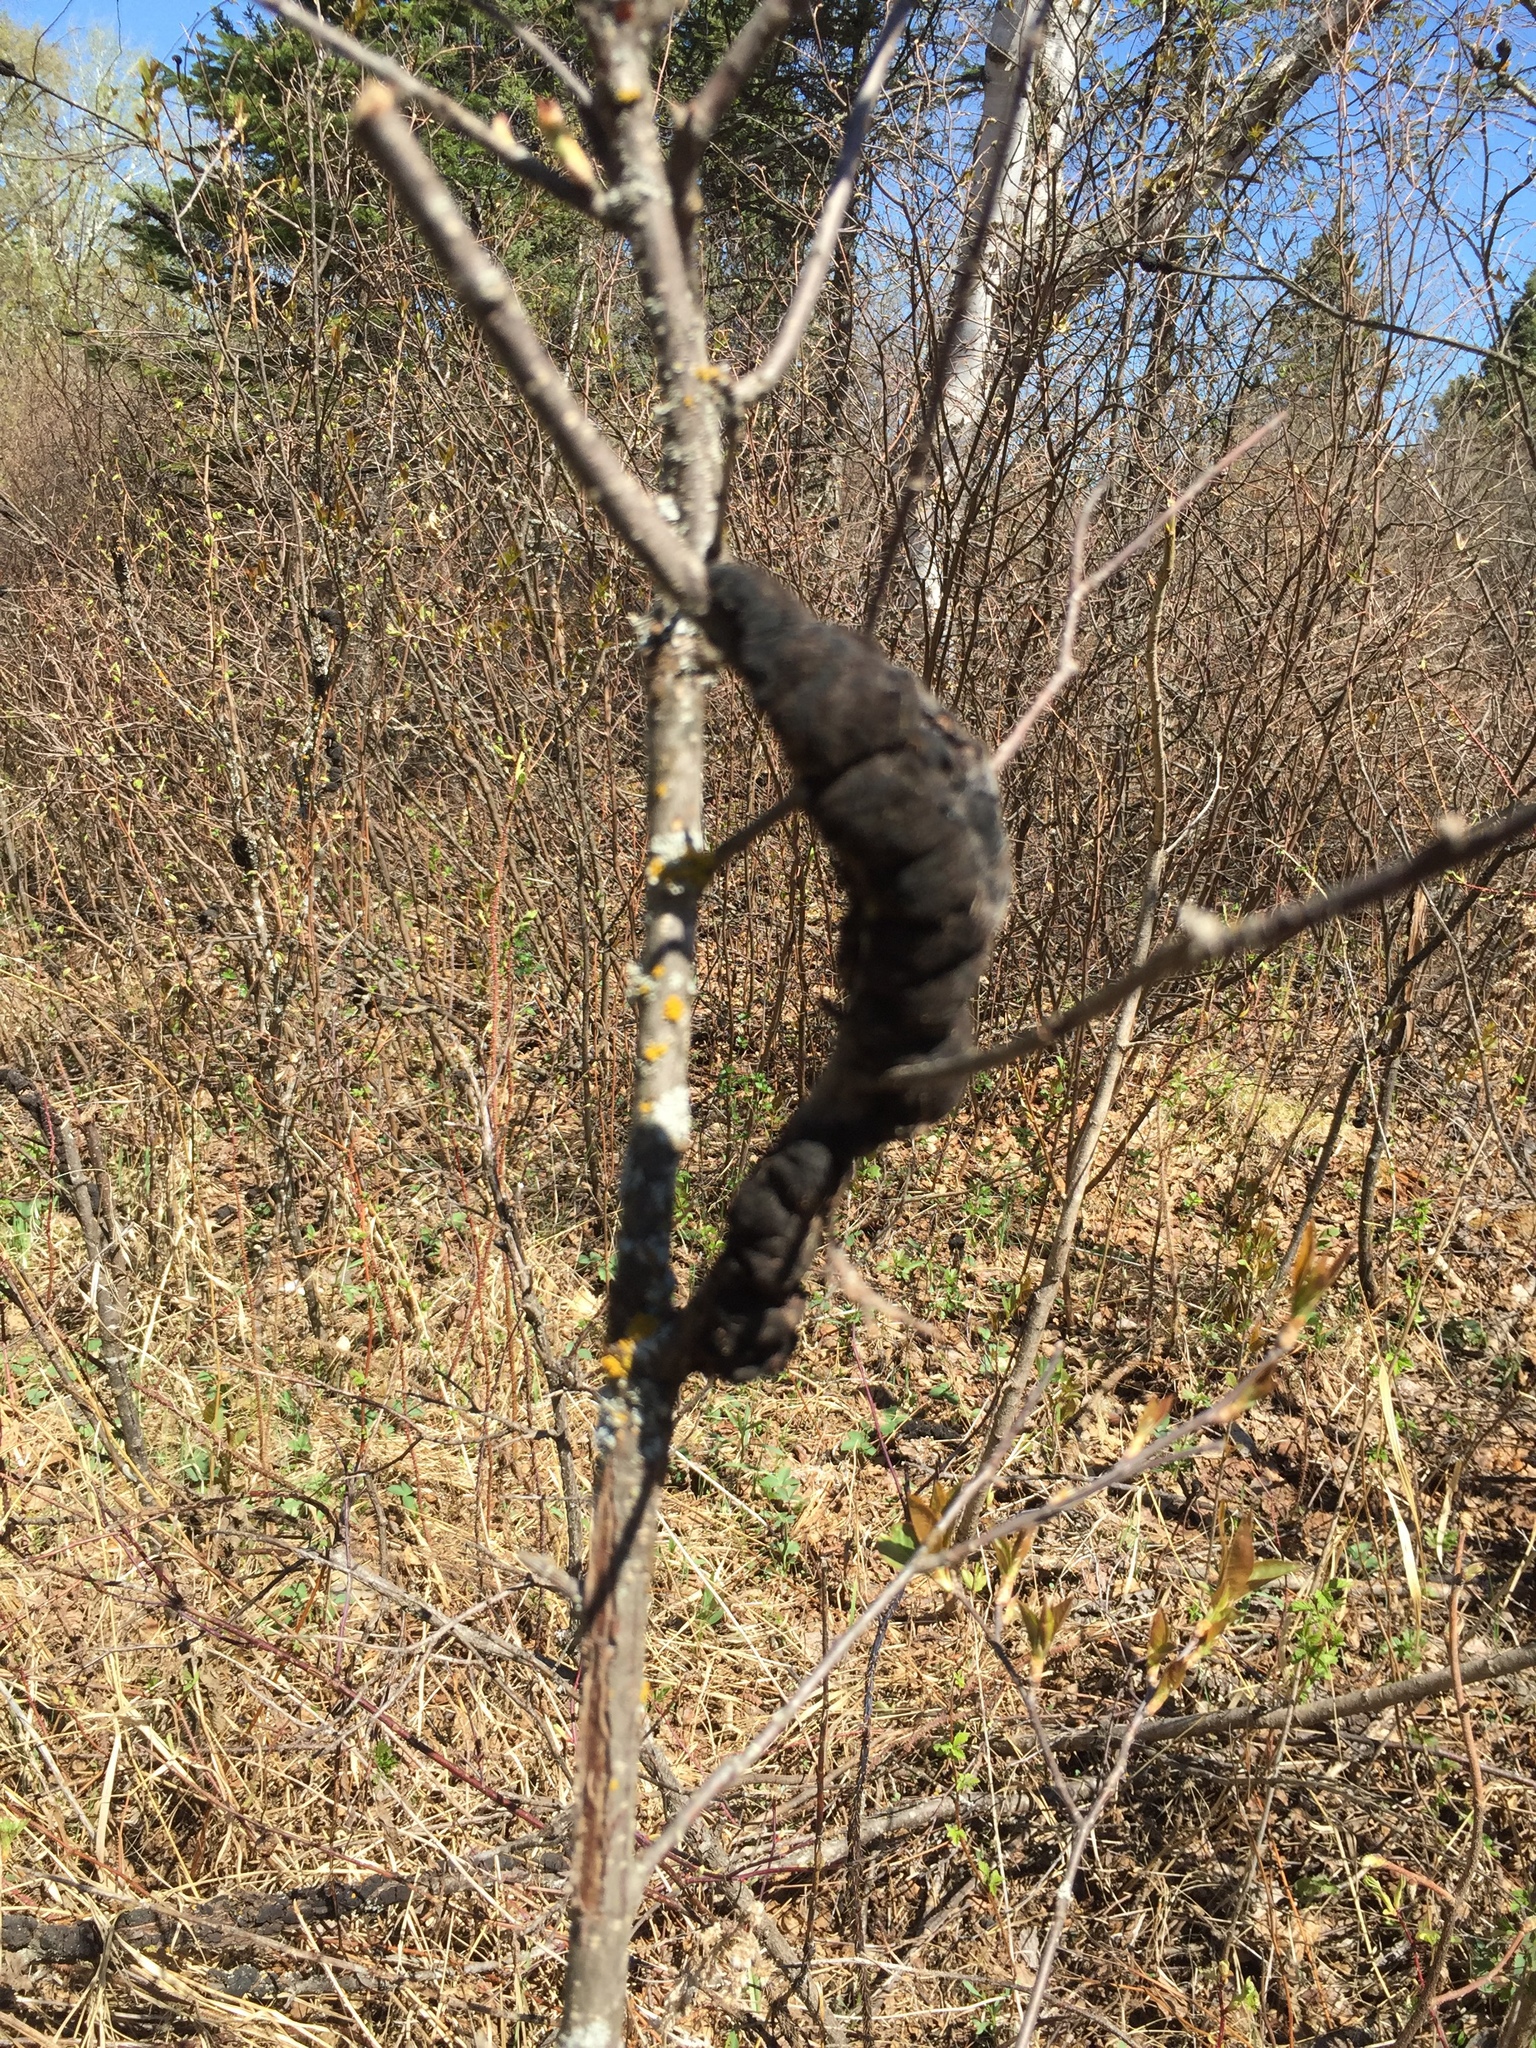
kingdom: Fungi
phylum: Ascomycota
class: Dothideomycetes
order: Venturiales
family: Venturiaceae
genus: Apiosporina
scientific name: Apiosporina morbosa
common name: Black knot
